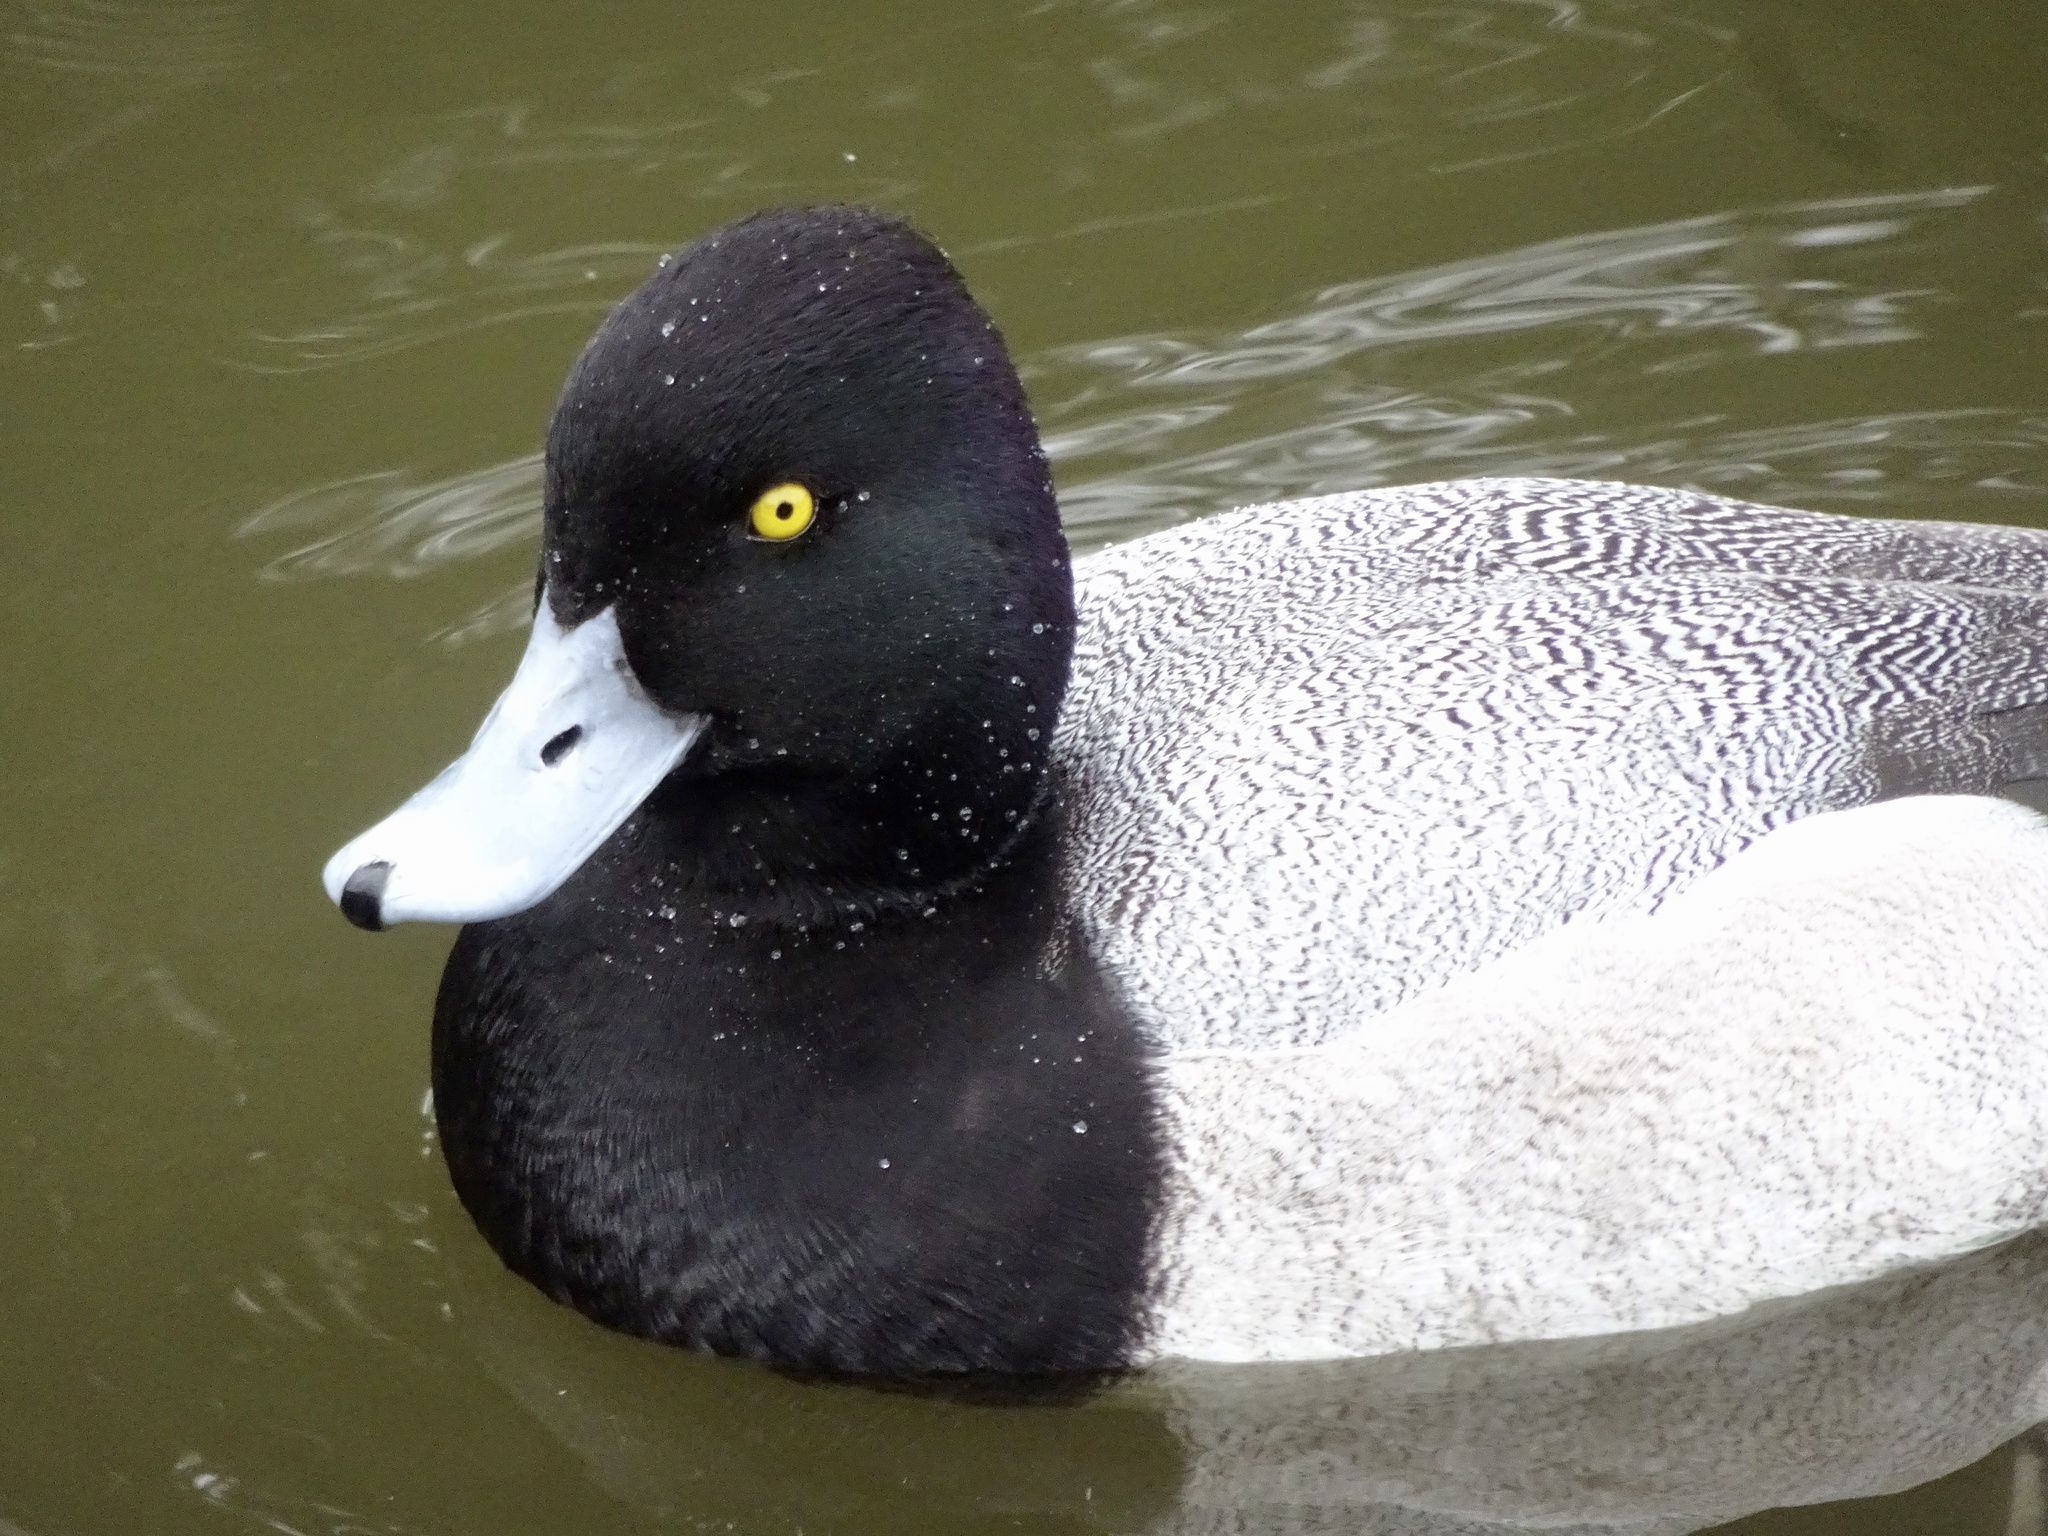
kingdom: Animalia
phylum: Chordata
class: Aves
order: Anseriformes
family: Anatidae
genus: Aythya
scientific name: Aythya affinis
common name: Lesser scaup
